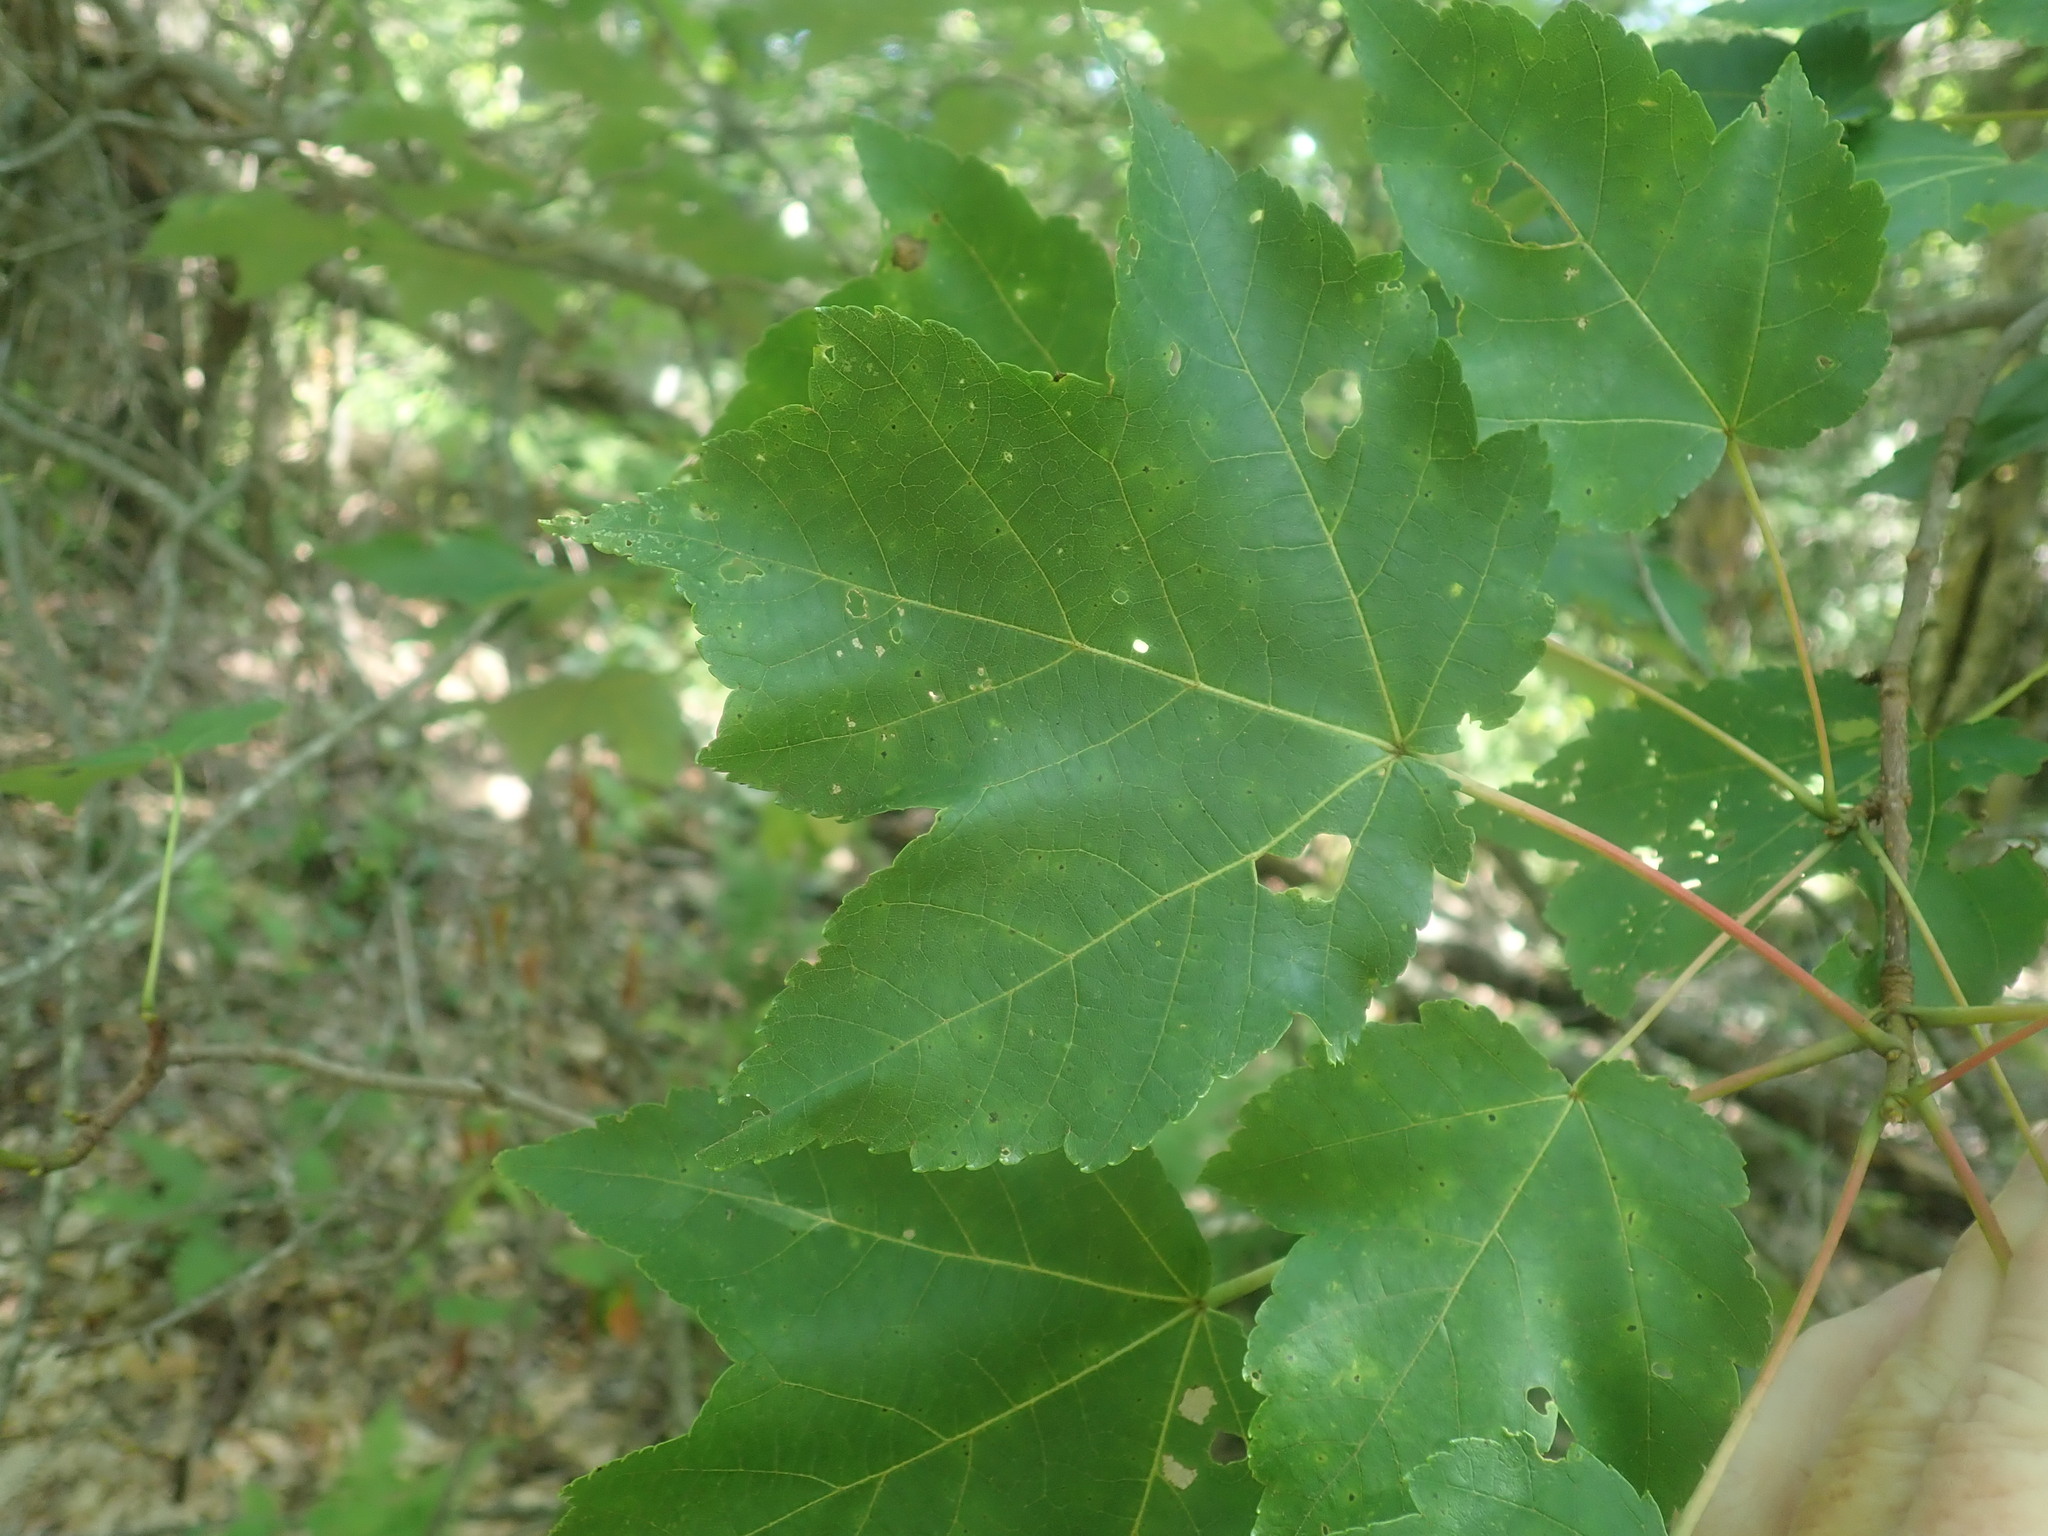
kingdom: Plantae
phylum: Tracheophyta
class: Magnoliopsida
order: Sapindales
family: Sapindaceae
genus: Acer
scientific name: Acer rubrum
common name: Red maple
